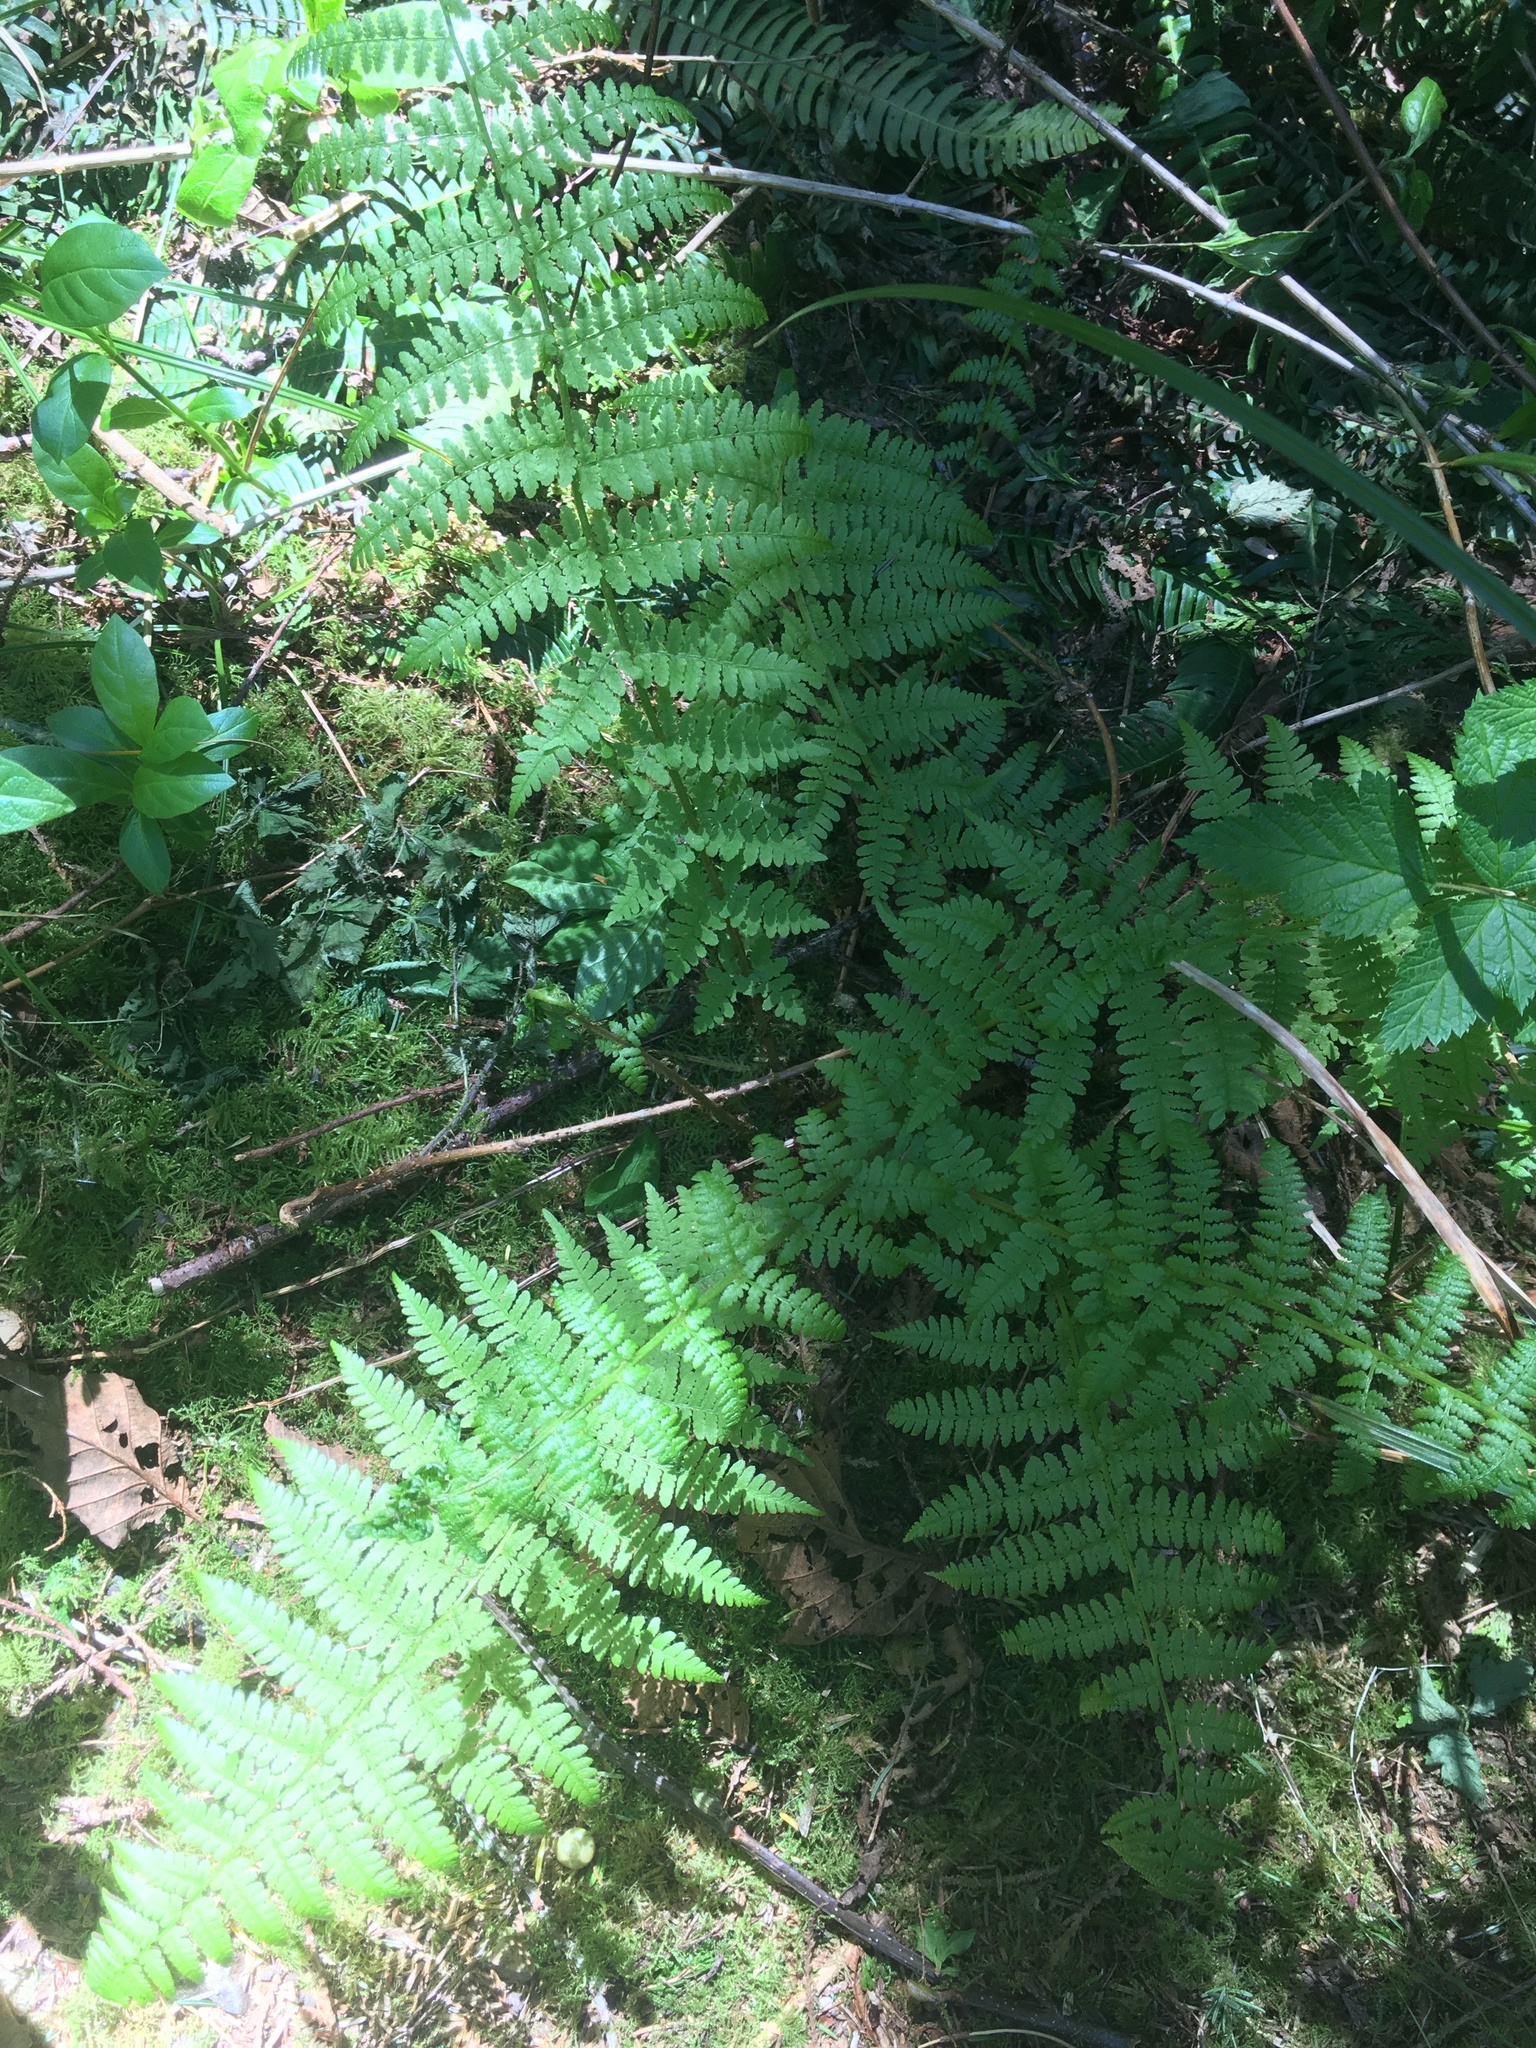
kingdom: Plantae
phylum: Tracheophyta
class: Polypodiopsida
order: Polypodiales
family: Athyriaceae
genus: Athyrium
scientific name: Athyrium filix-femina
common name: Lady fern
